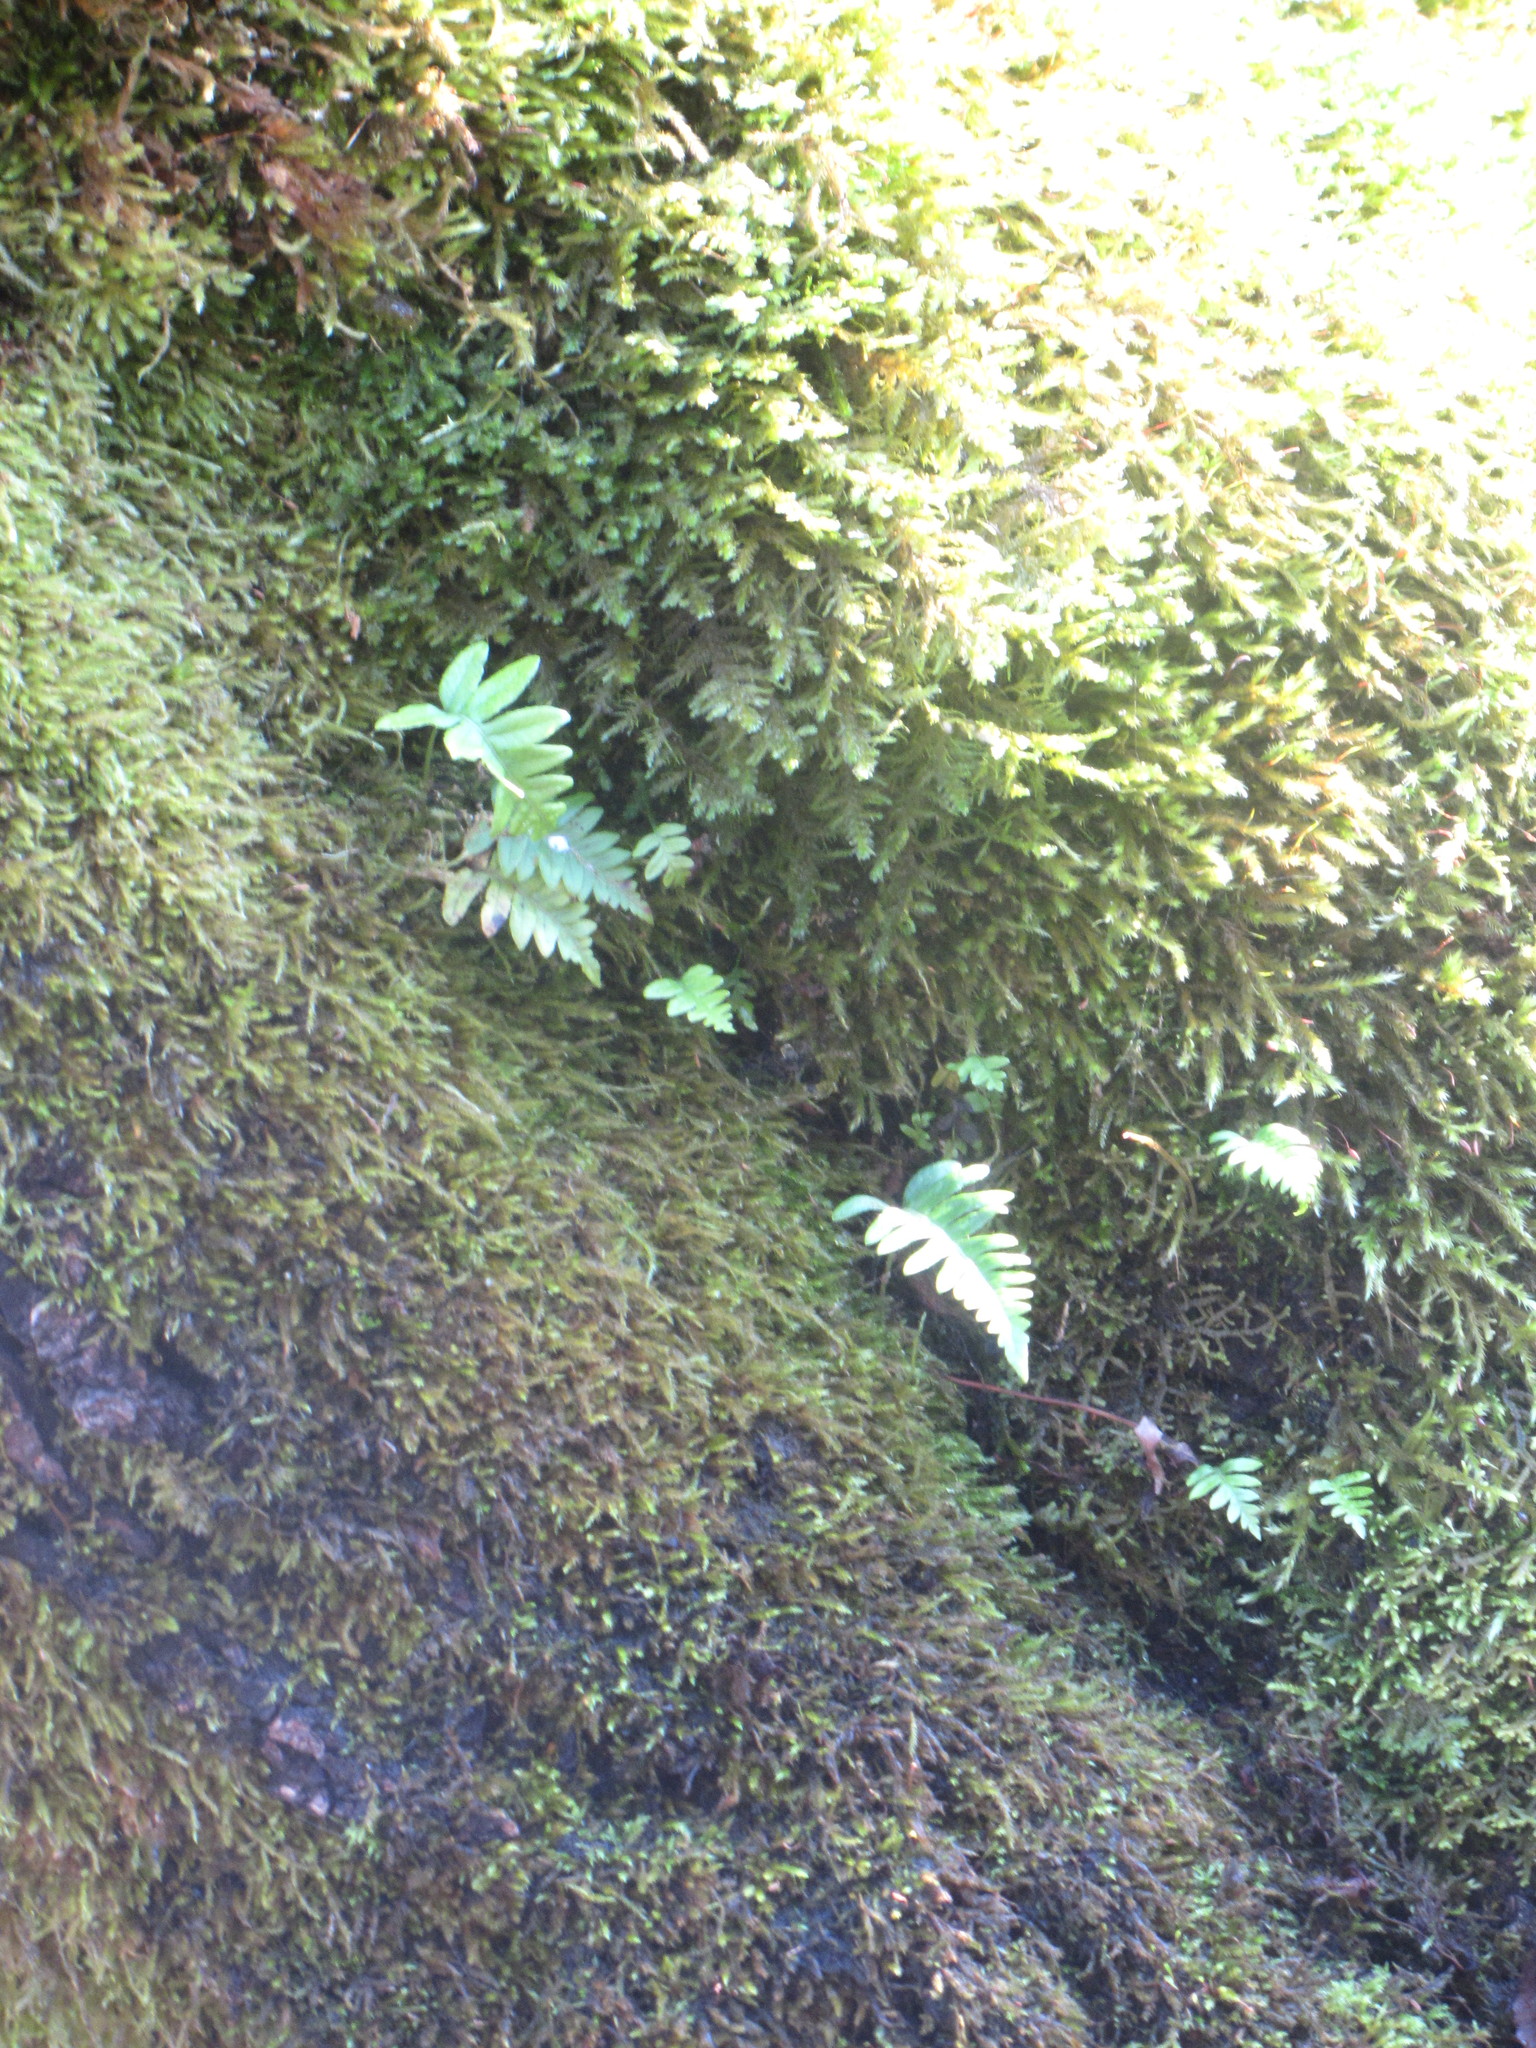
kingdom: Plantae
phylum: Tracheophyta
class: Polypodiopsida
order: Polypodiales
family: Polypodiaceae
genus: Polypodium
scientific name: Polypodium glycyrrhiza
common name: Licorice fern
